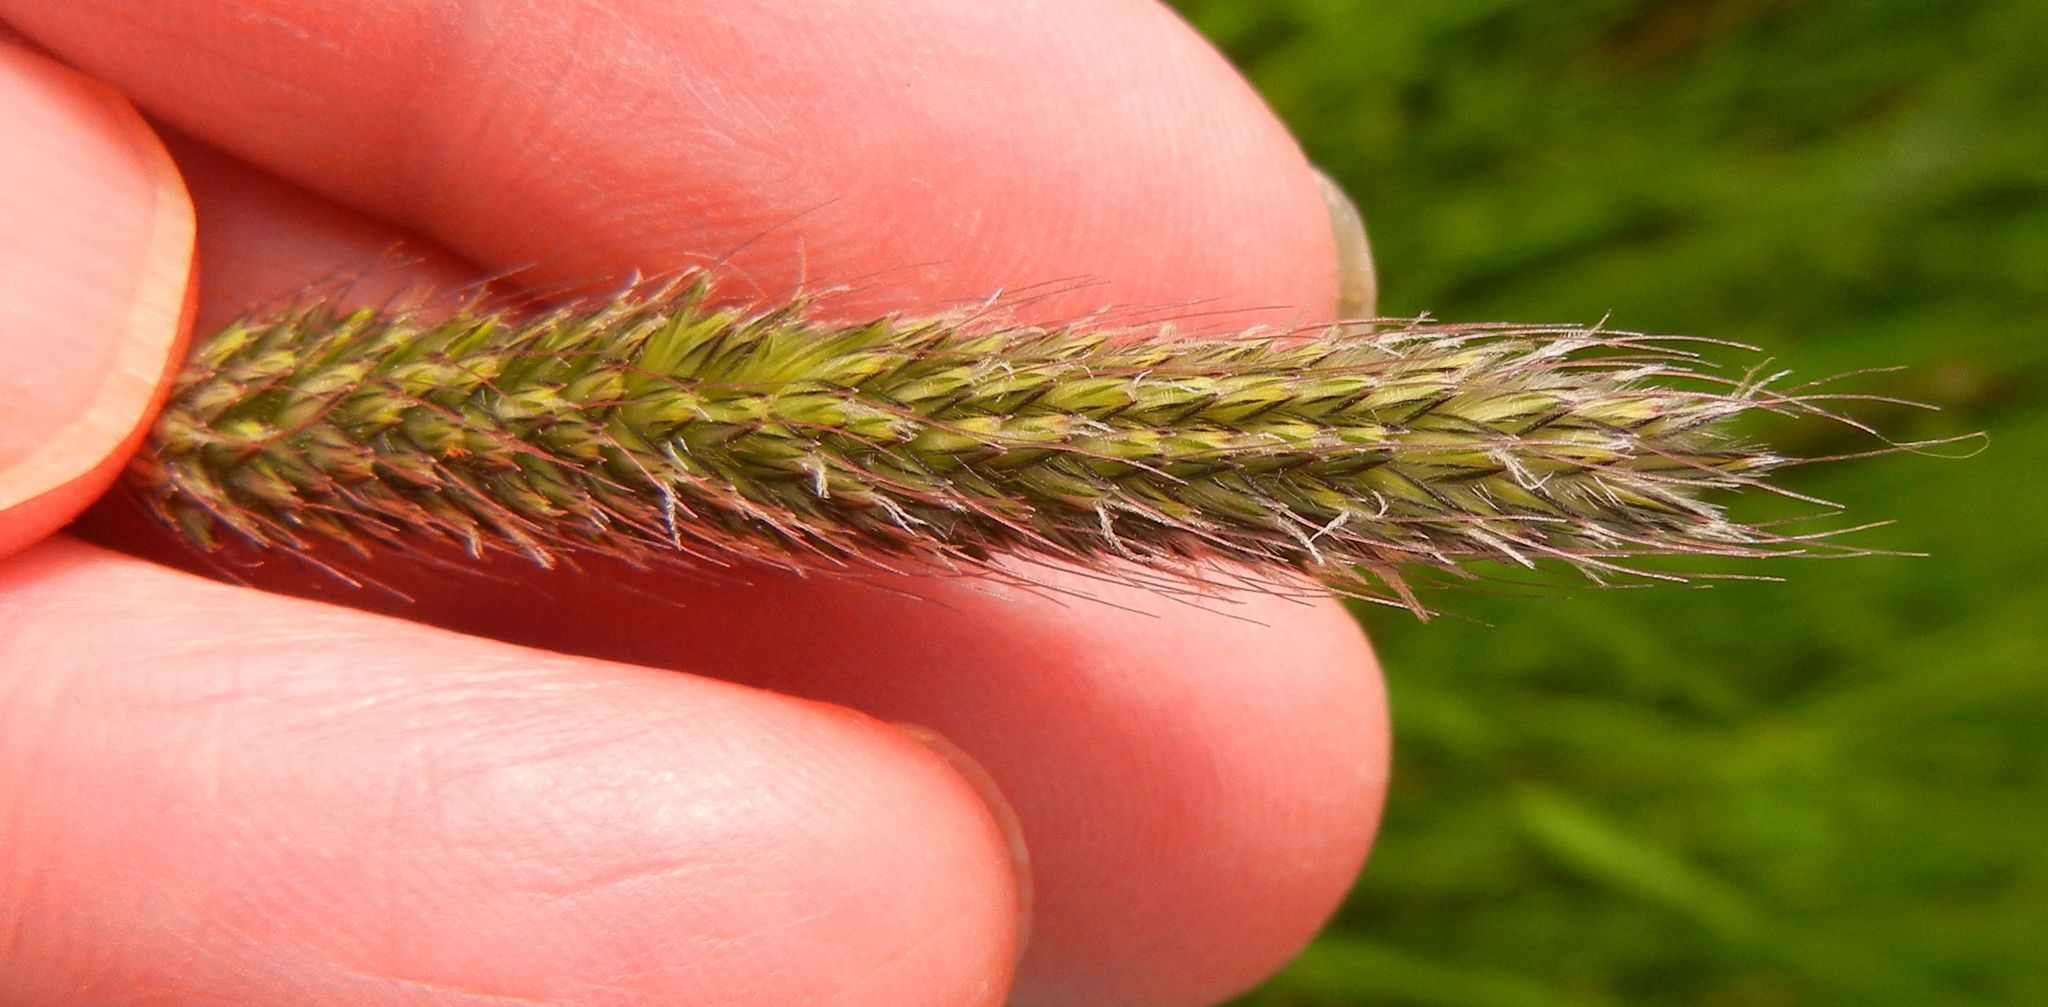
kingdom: Plantae
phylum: Tracheophyta
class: Liliopsida
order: Poales
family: Poaceae
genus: Alopecurus
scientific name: Alopecurus pratensis
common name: Meadow foxtail
